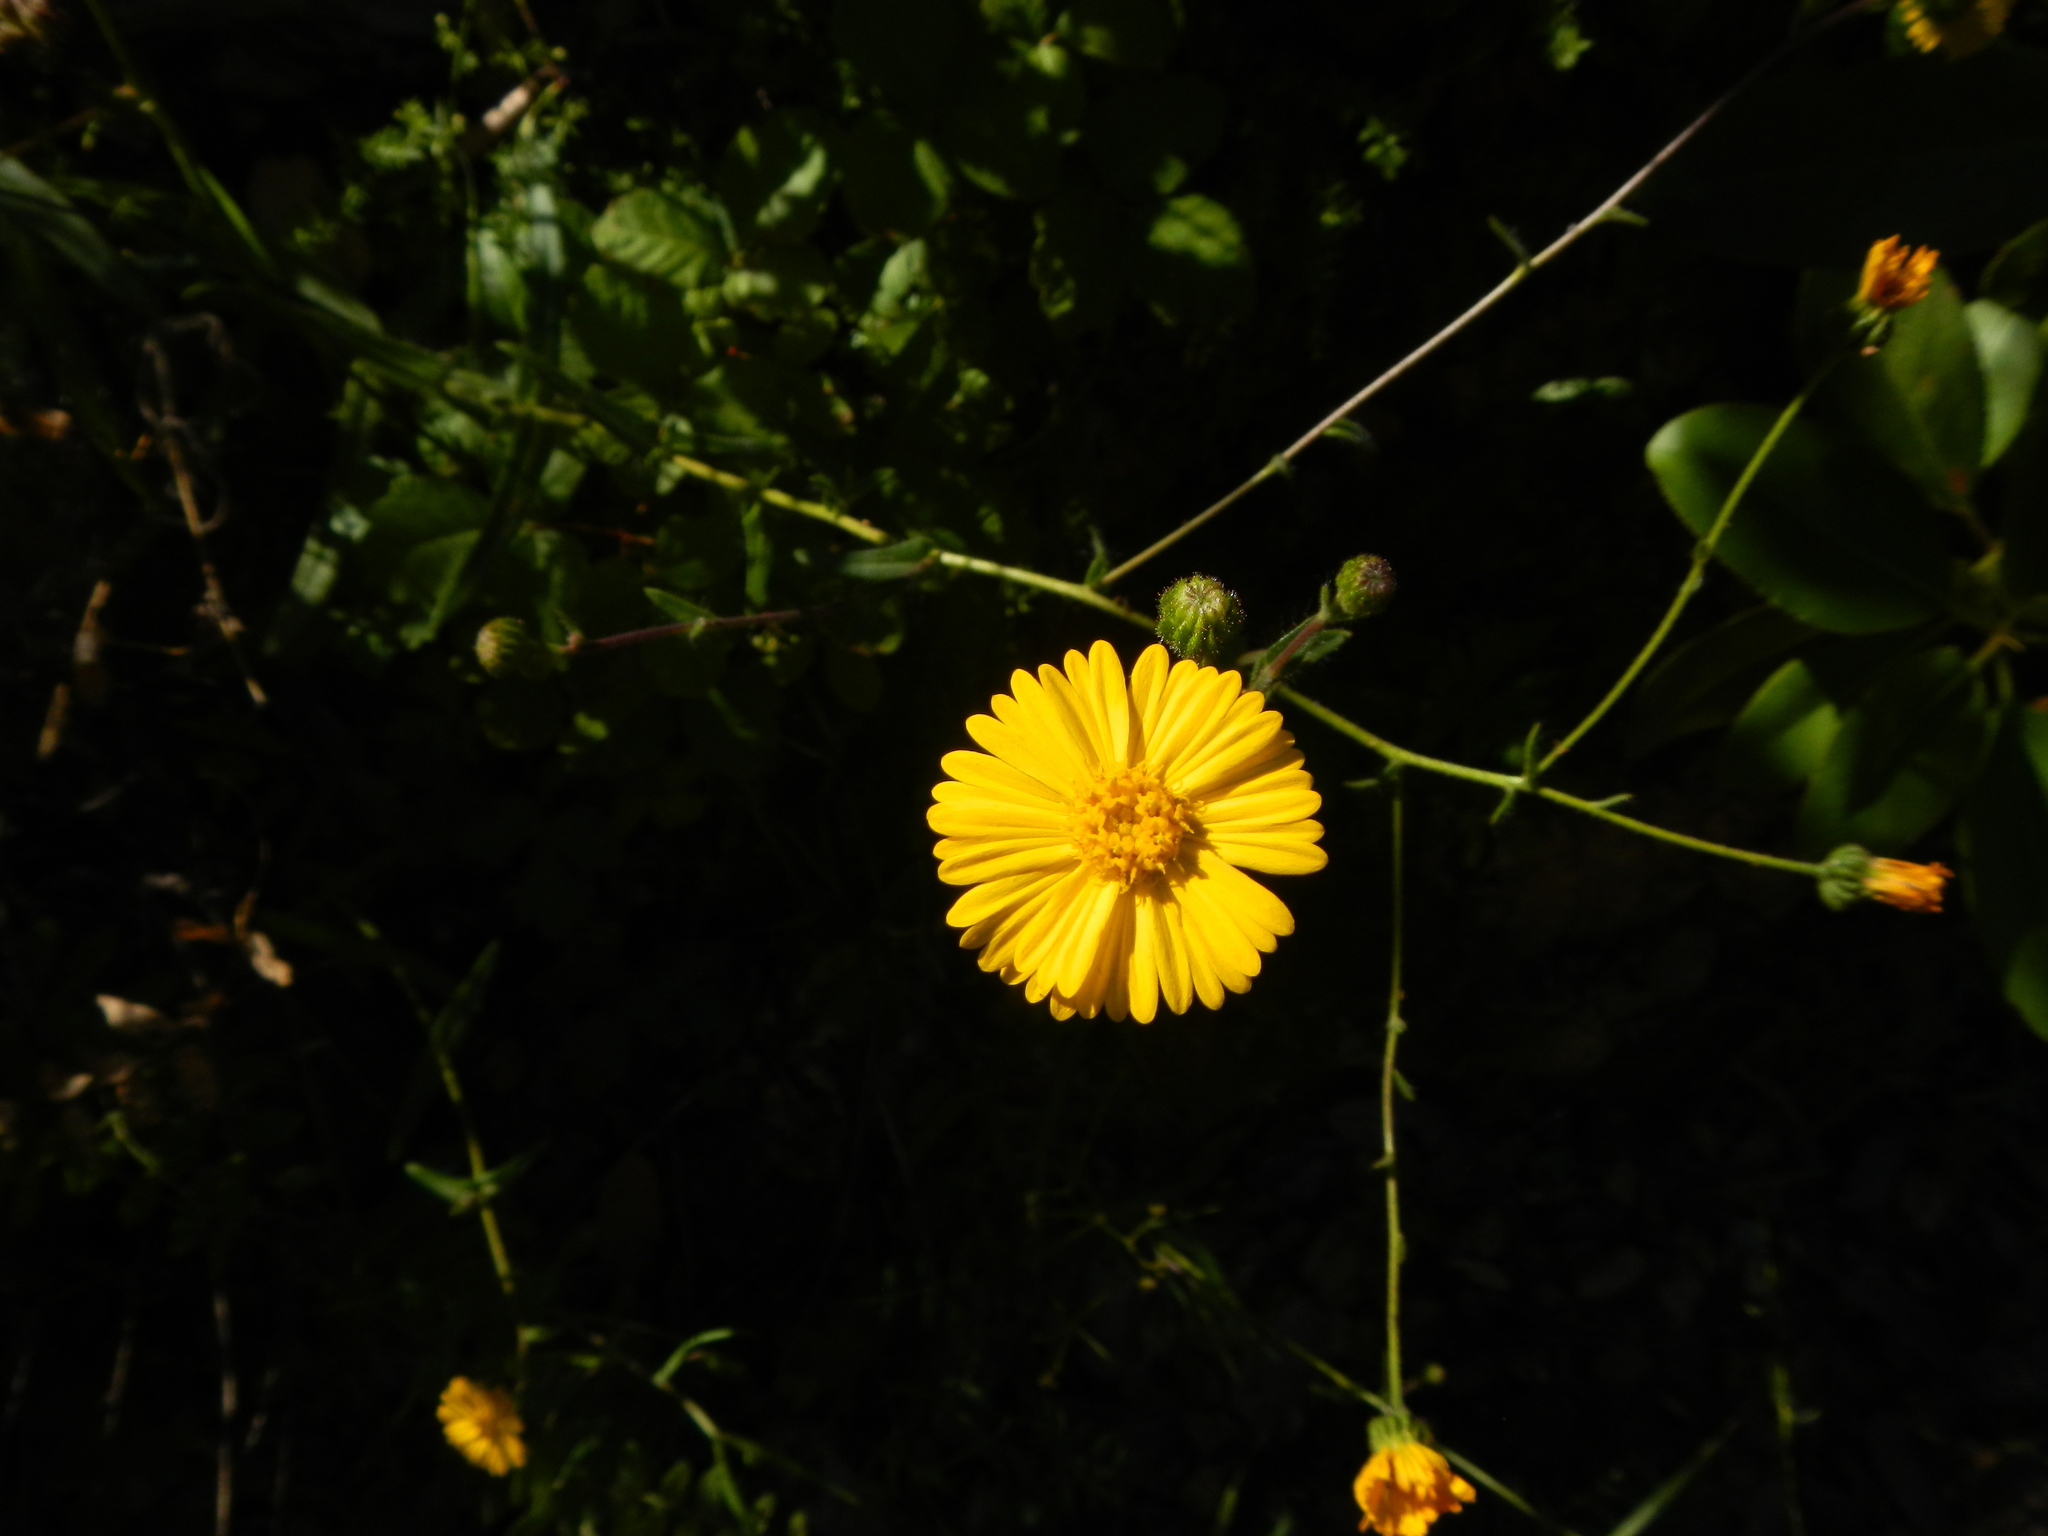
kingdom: Plantae
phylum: Tracheophyta
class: Magnoliopsida
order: Asterales
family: Asteraceae
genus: Anisocarpus
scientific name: Anisocarpus madioides
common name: Woodland madia
